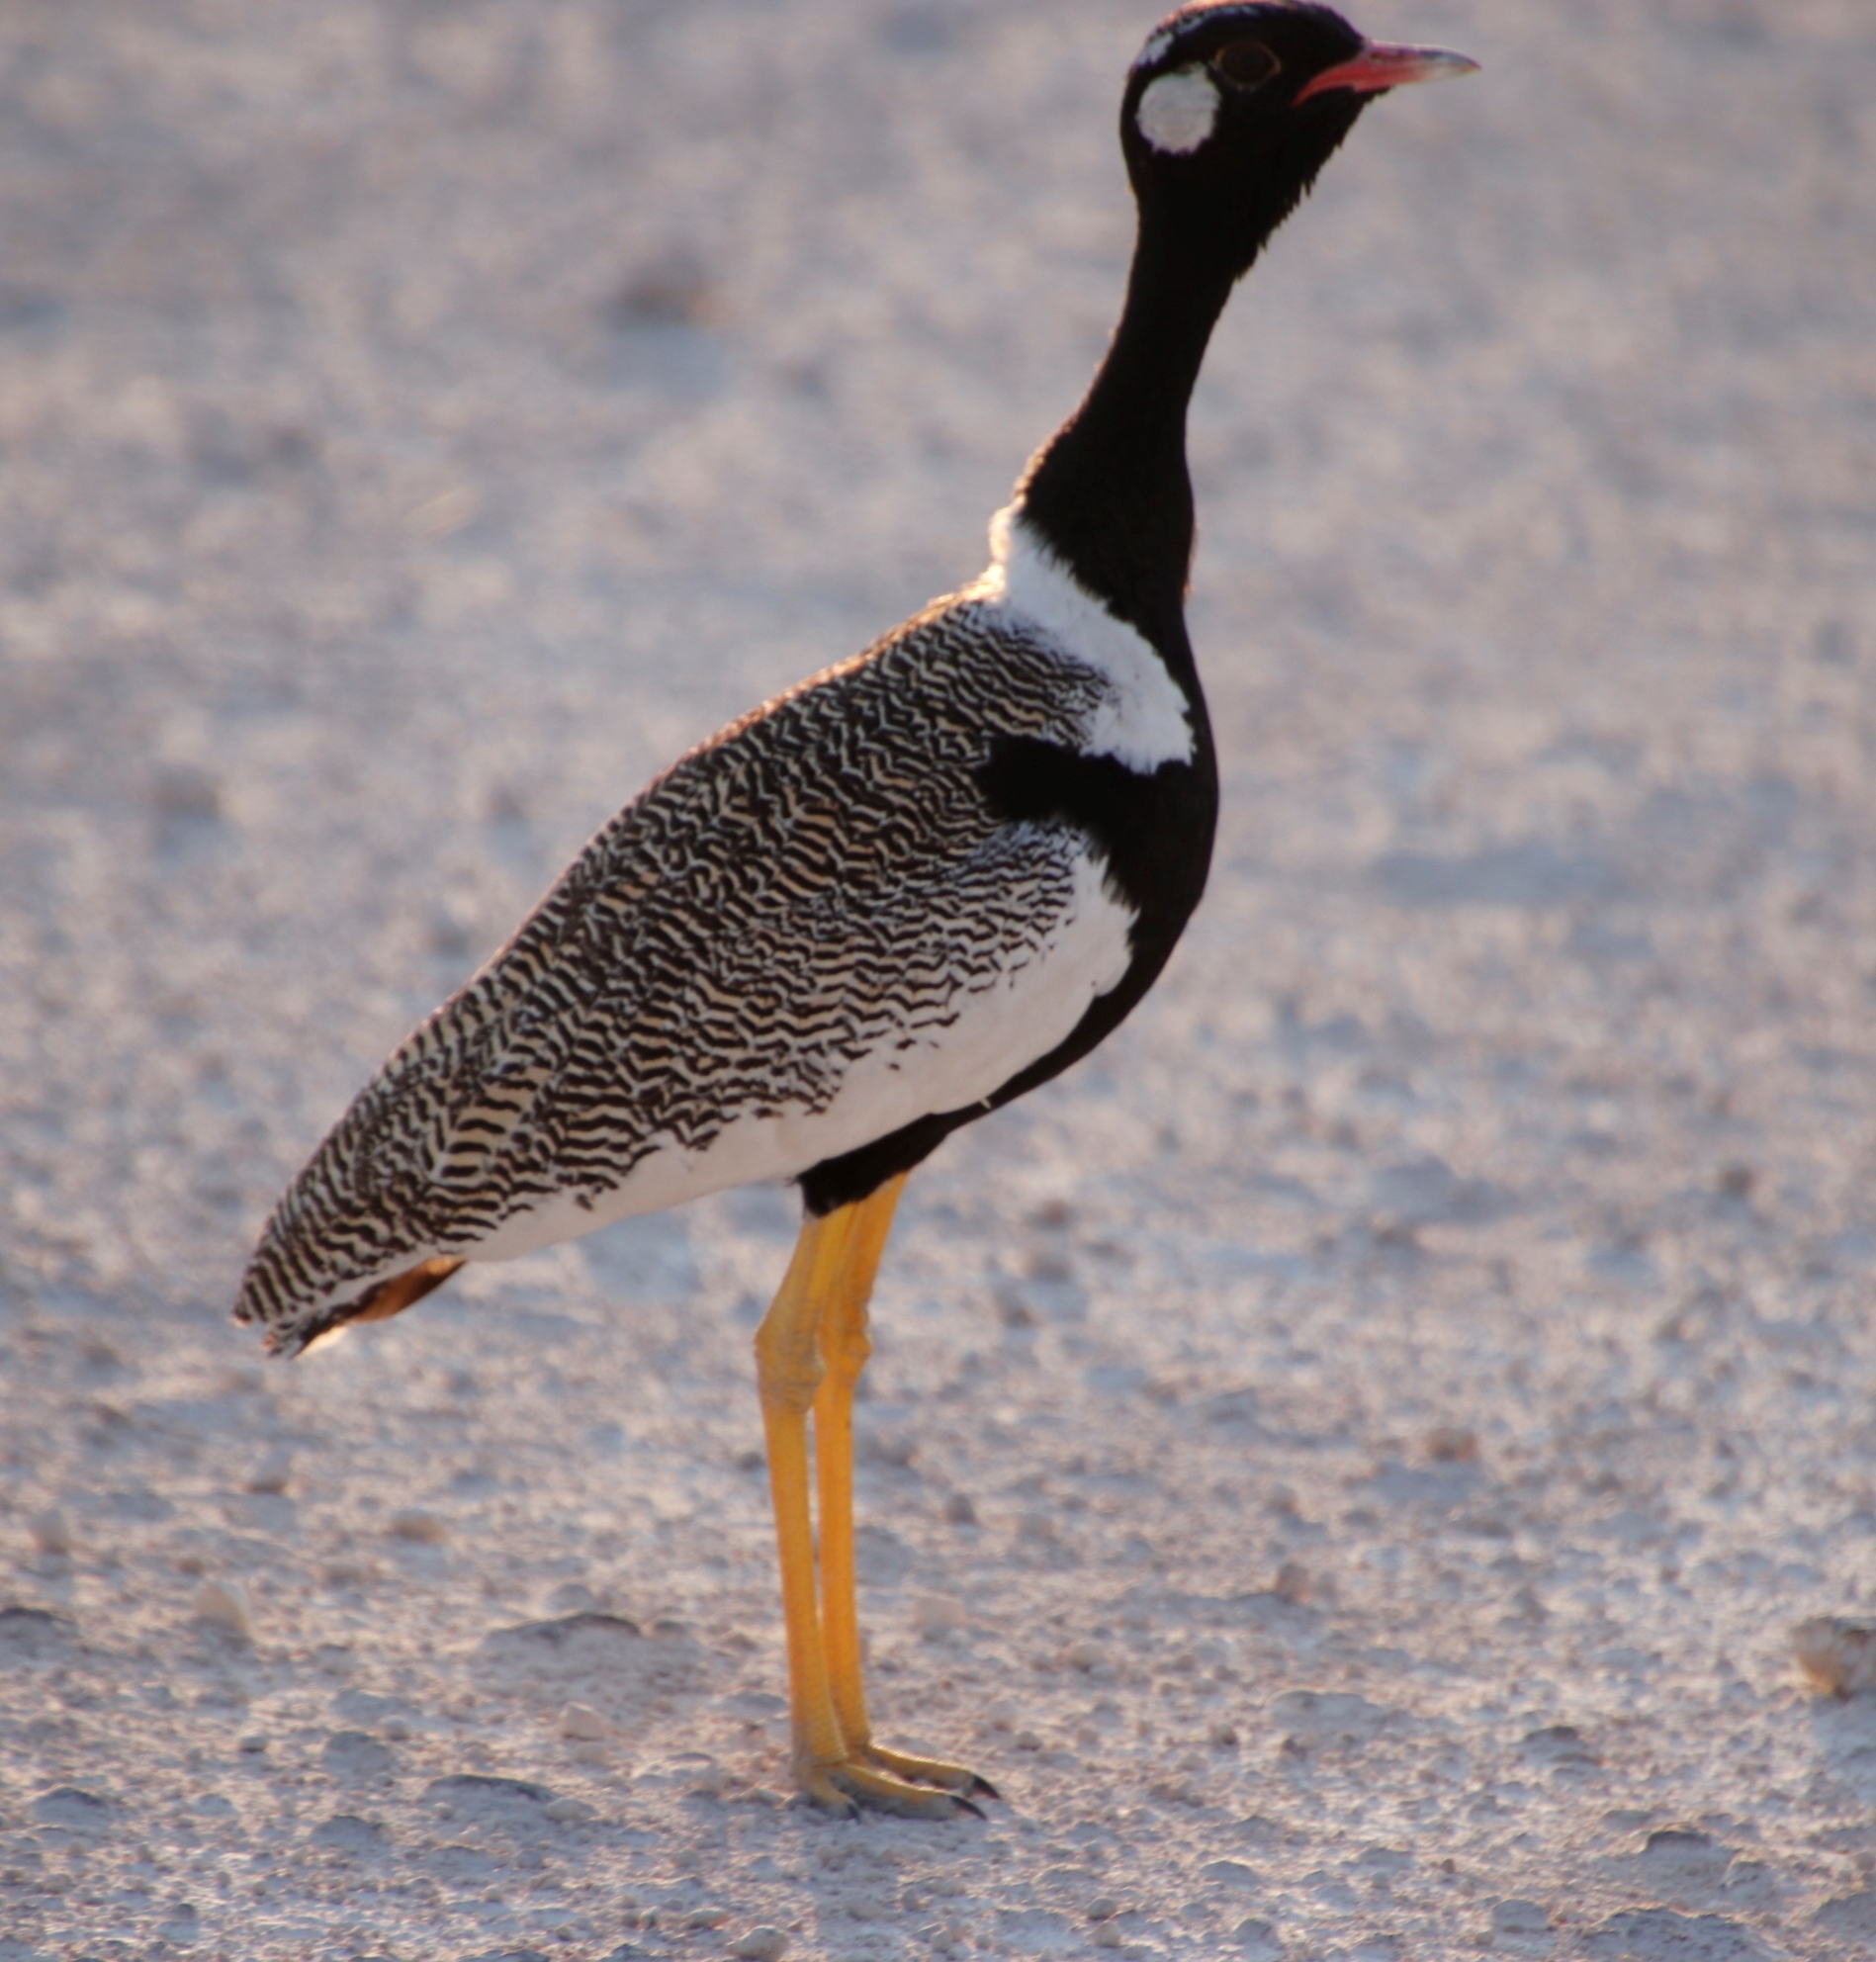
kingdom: Animalia
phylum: Chordata
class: Aves
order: Otidiformes
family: Otididae
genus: Afrotis
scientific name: Afrotis afraoides
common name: Northern black korhaan
